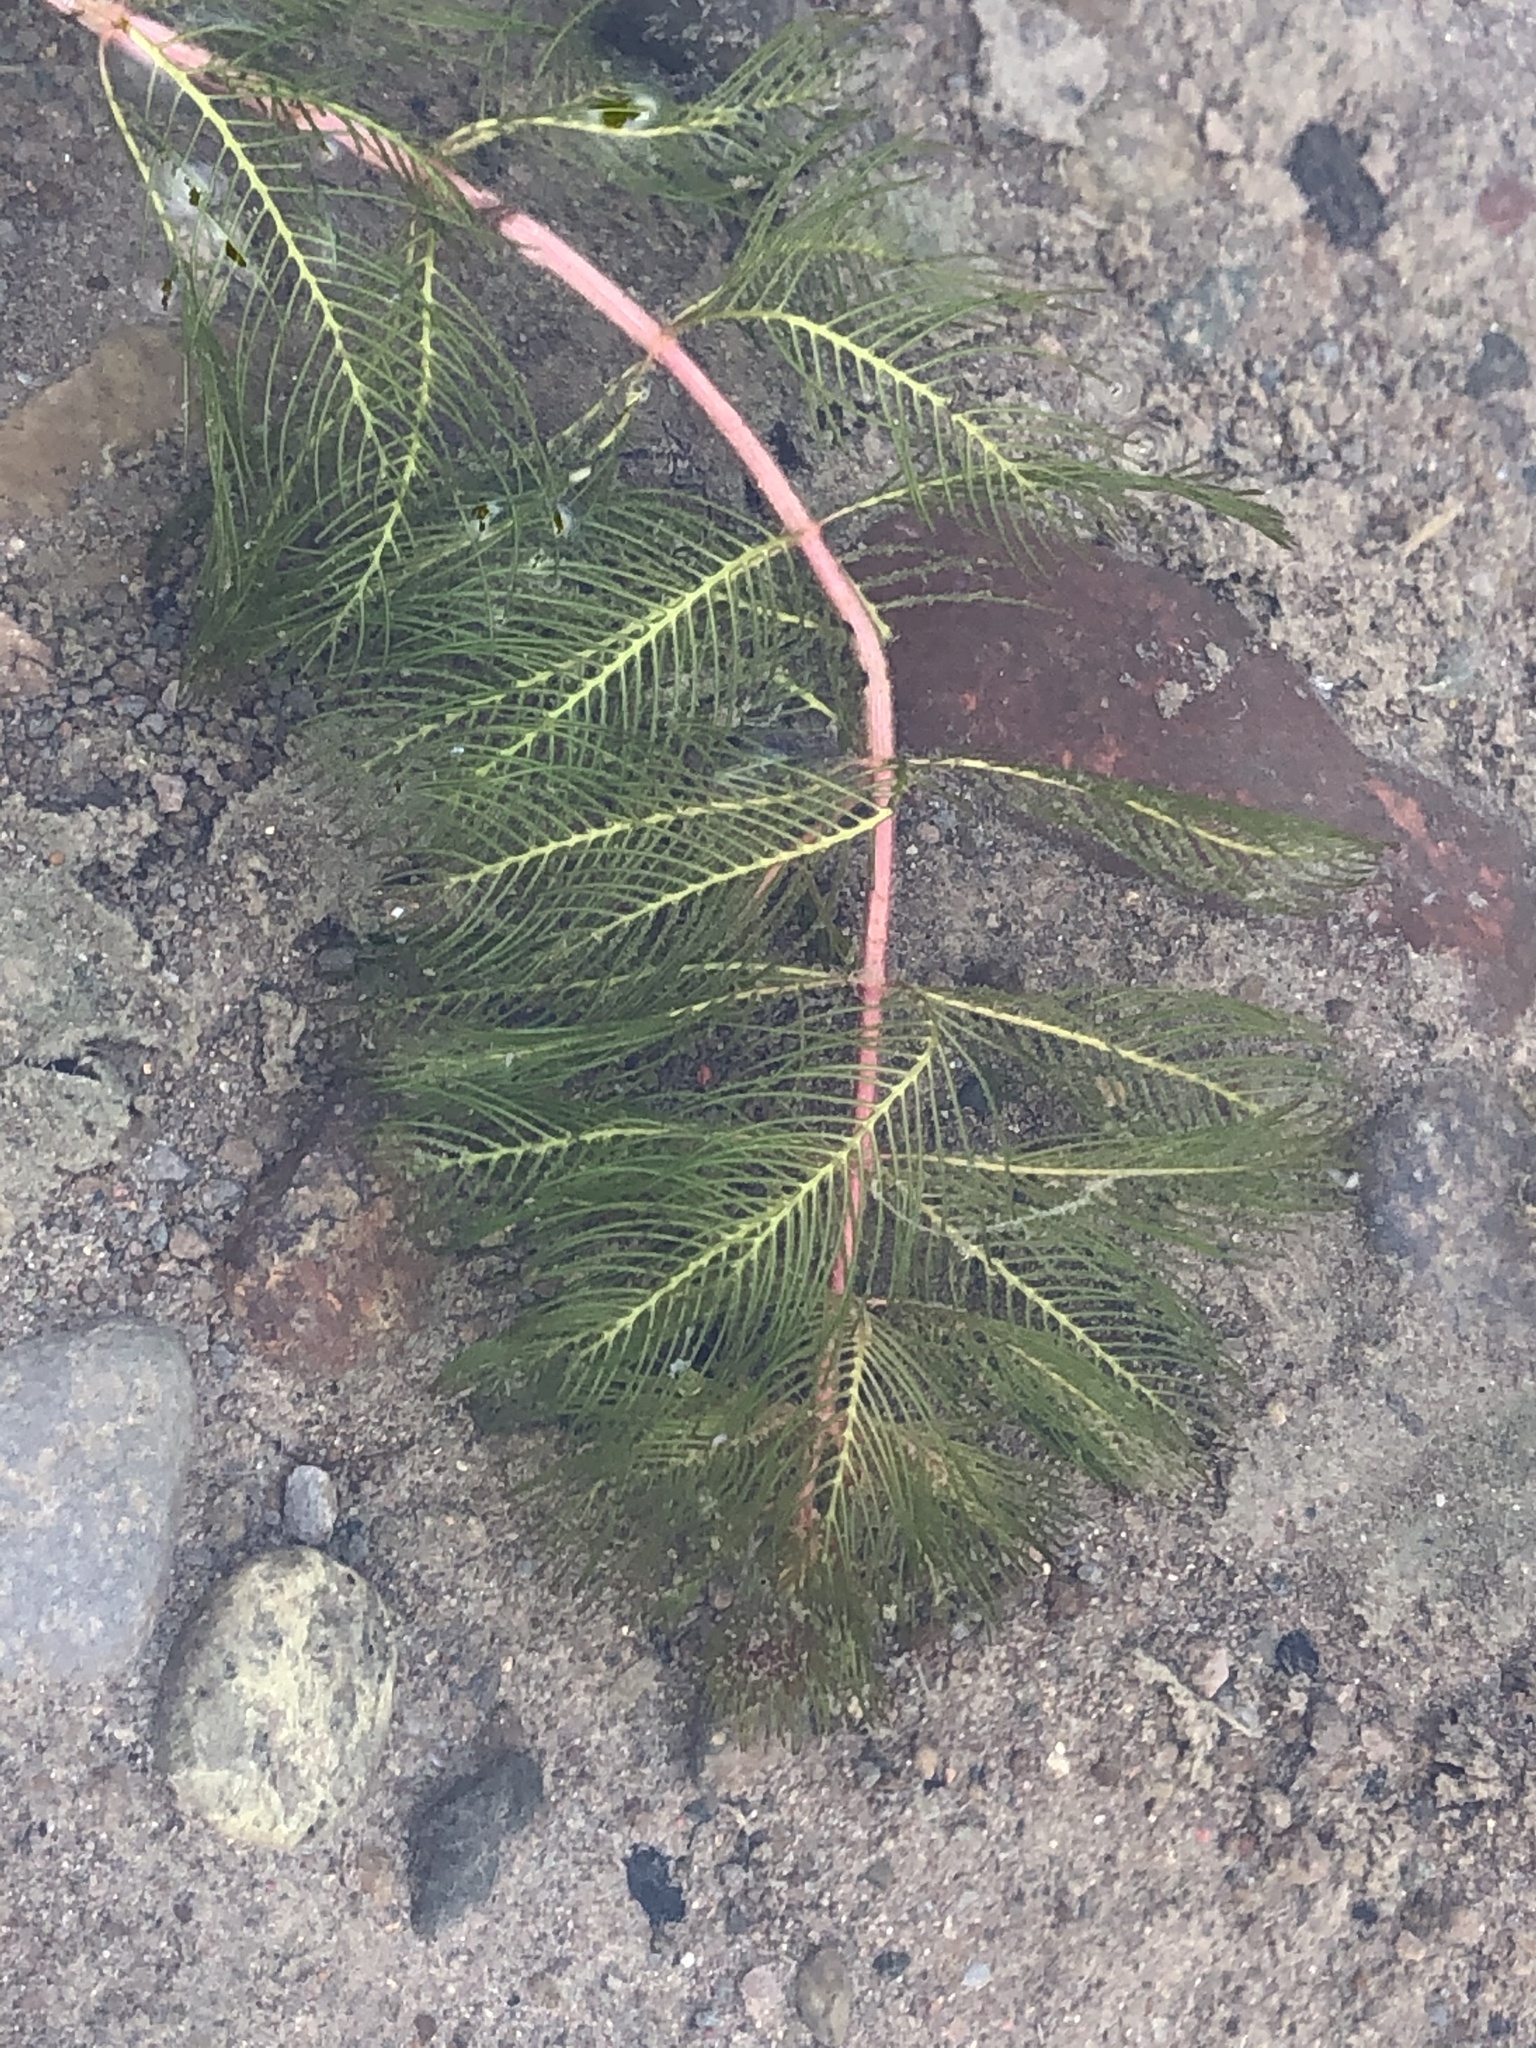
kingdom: Plantae
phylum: Tracheophyta
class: Magnoliopsida
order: Saxifragales
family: Haloragaceae
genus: Myriophyllum
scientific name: Myriophyllum spicatum
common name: Spiked water-milfoil
